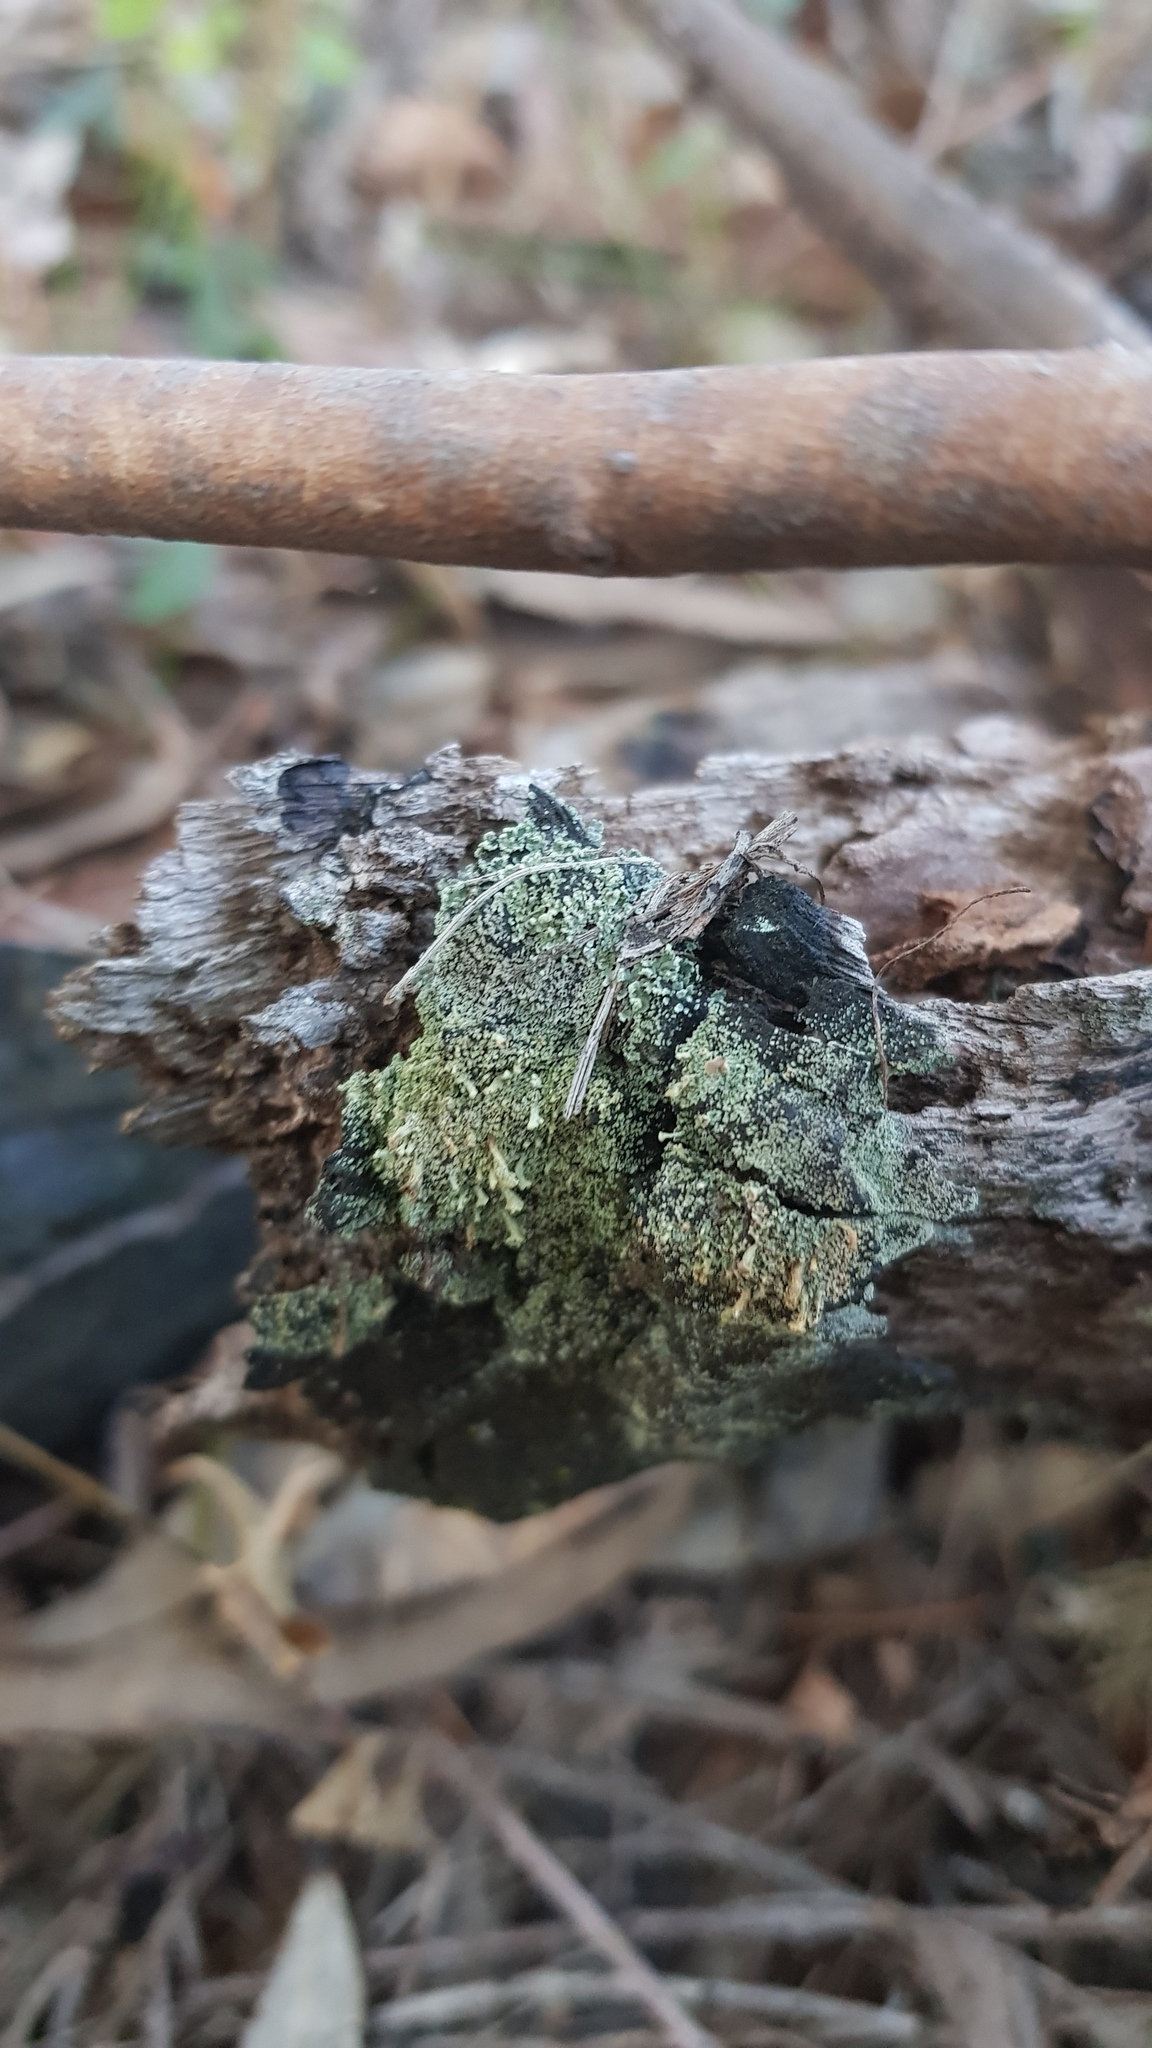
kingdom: Fungi
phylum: Ascomycota
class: Lecanoromycetes
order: Lecanorales
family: Cladoniaceae
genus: Thysanothecium
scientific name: Thysanothecium scutellatum
